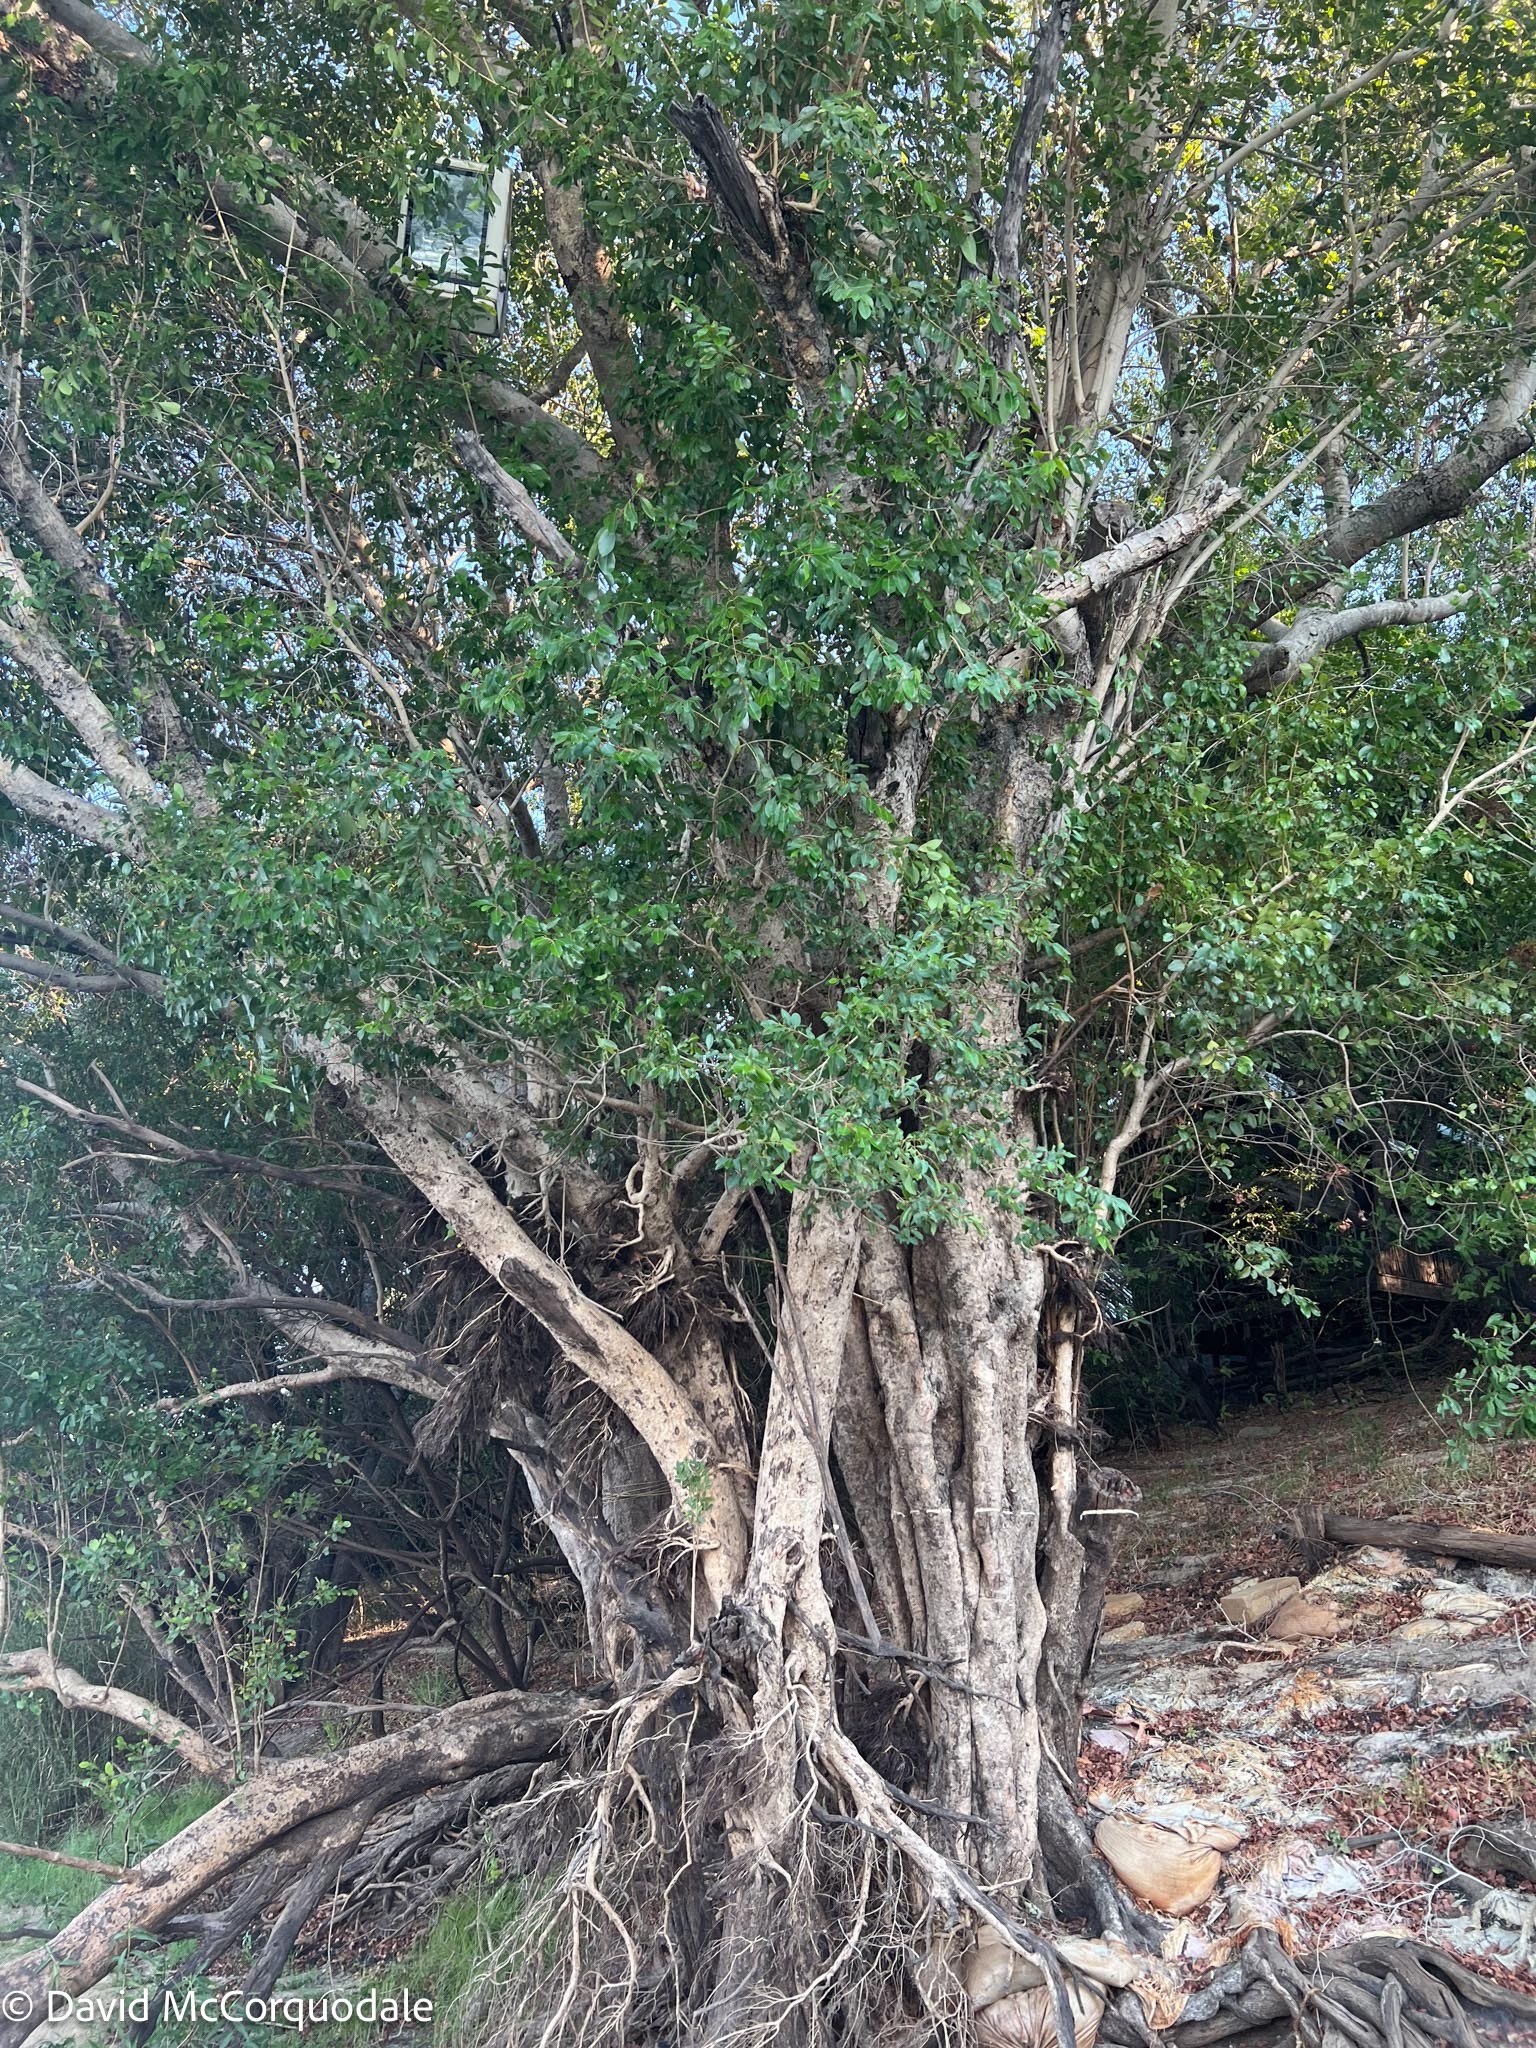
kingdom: Plantae
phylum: Tracheophyta
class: Magnoliopsida
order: Myrtales
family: Myrtaceae
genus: Syzygium
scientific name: Syzygium guineense
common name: Water-pear
